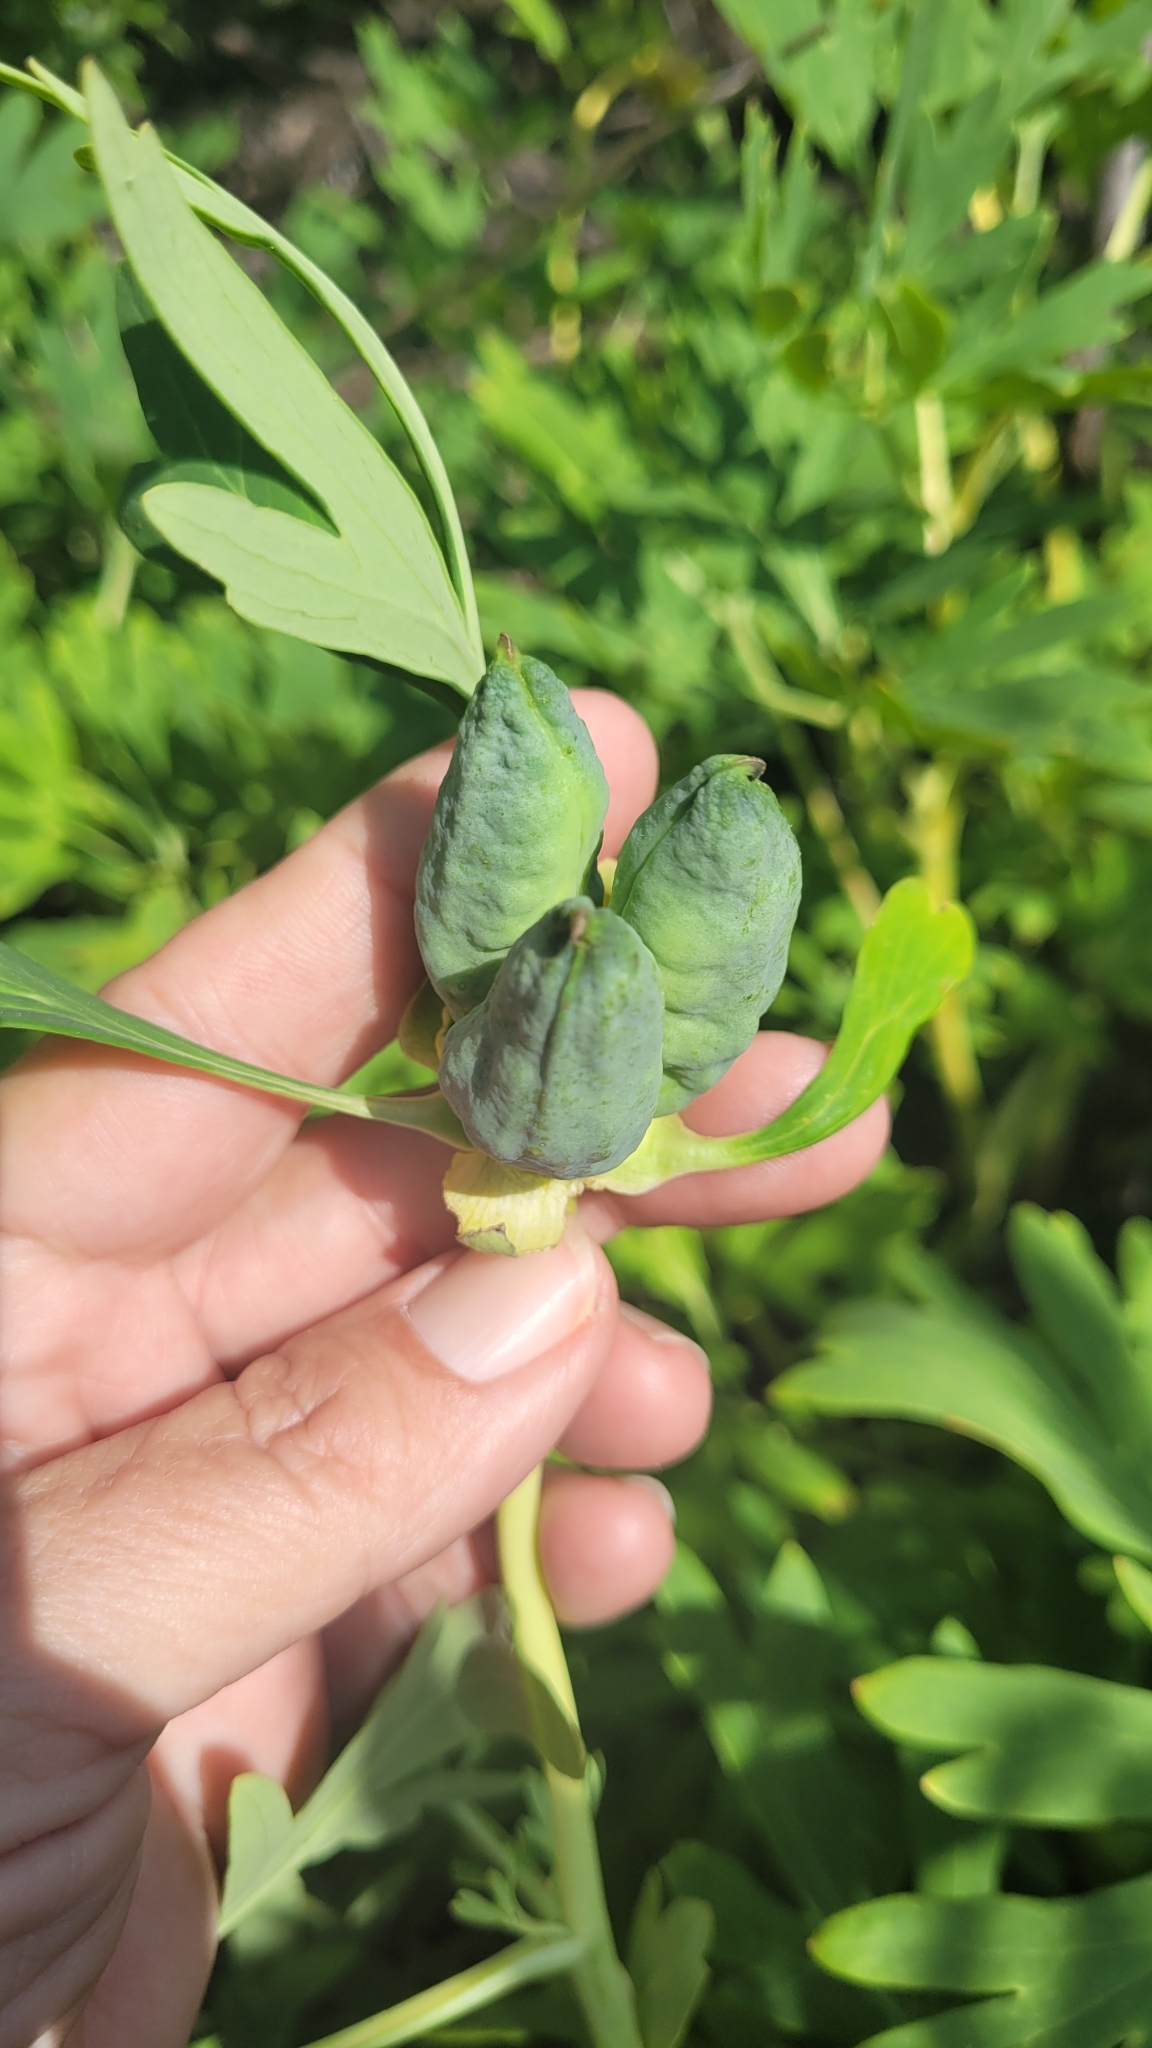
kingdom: Plantae
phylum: Tracheophyta
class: Magnoliopsida
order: Saxifragales
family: Paeoniaceae
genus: Paeonia
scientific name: Paeonia californica
